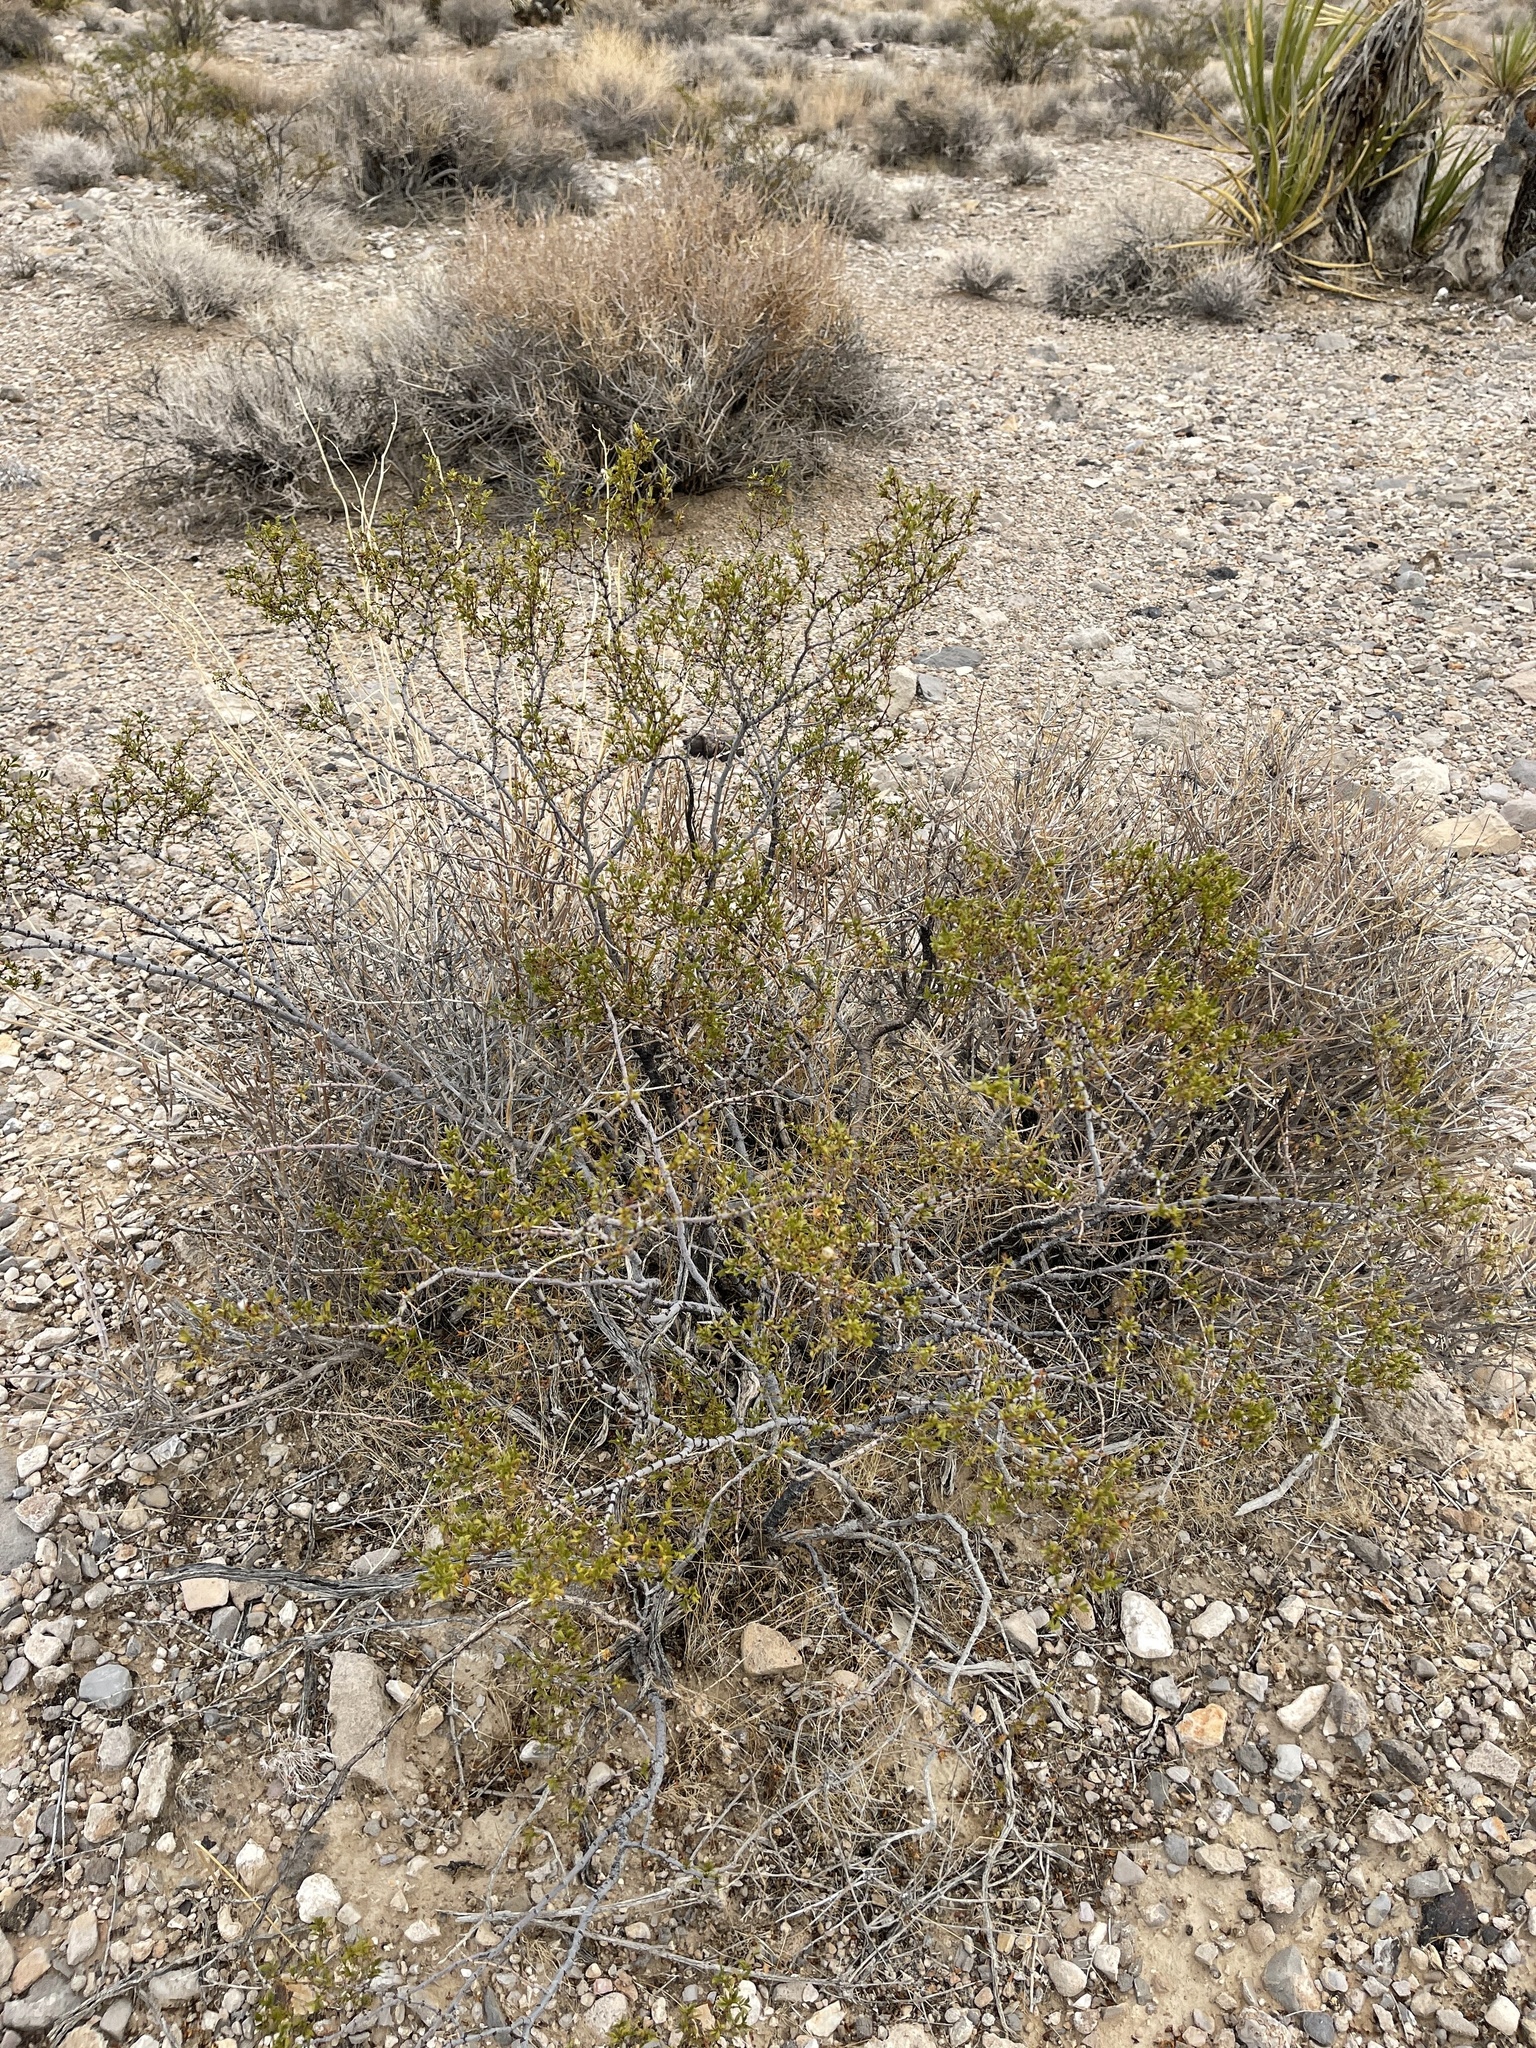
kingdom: Plantae
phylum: Tracheophyta
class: Magnoliopsida
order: Zygophyllales
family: Zygophyllaceae
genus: Larrea
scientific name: Larrea tridentata
